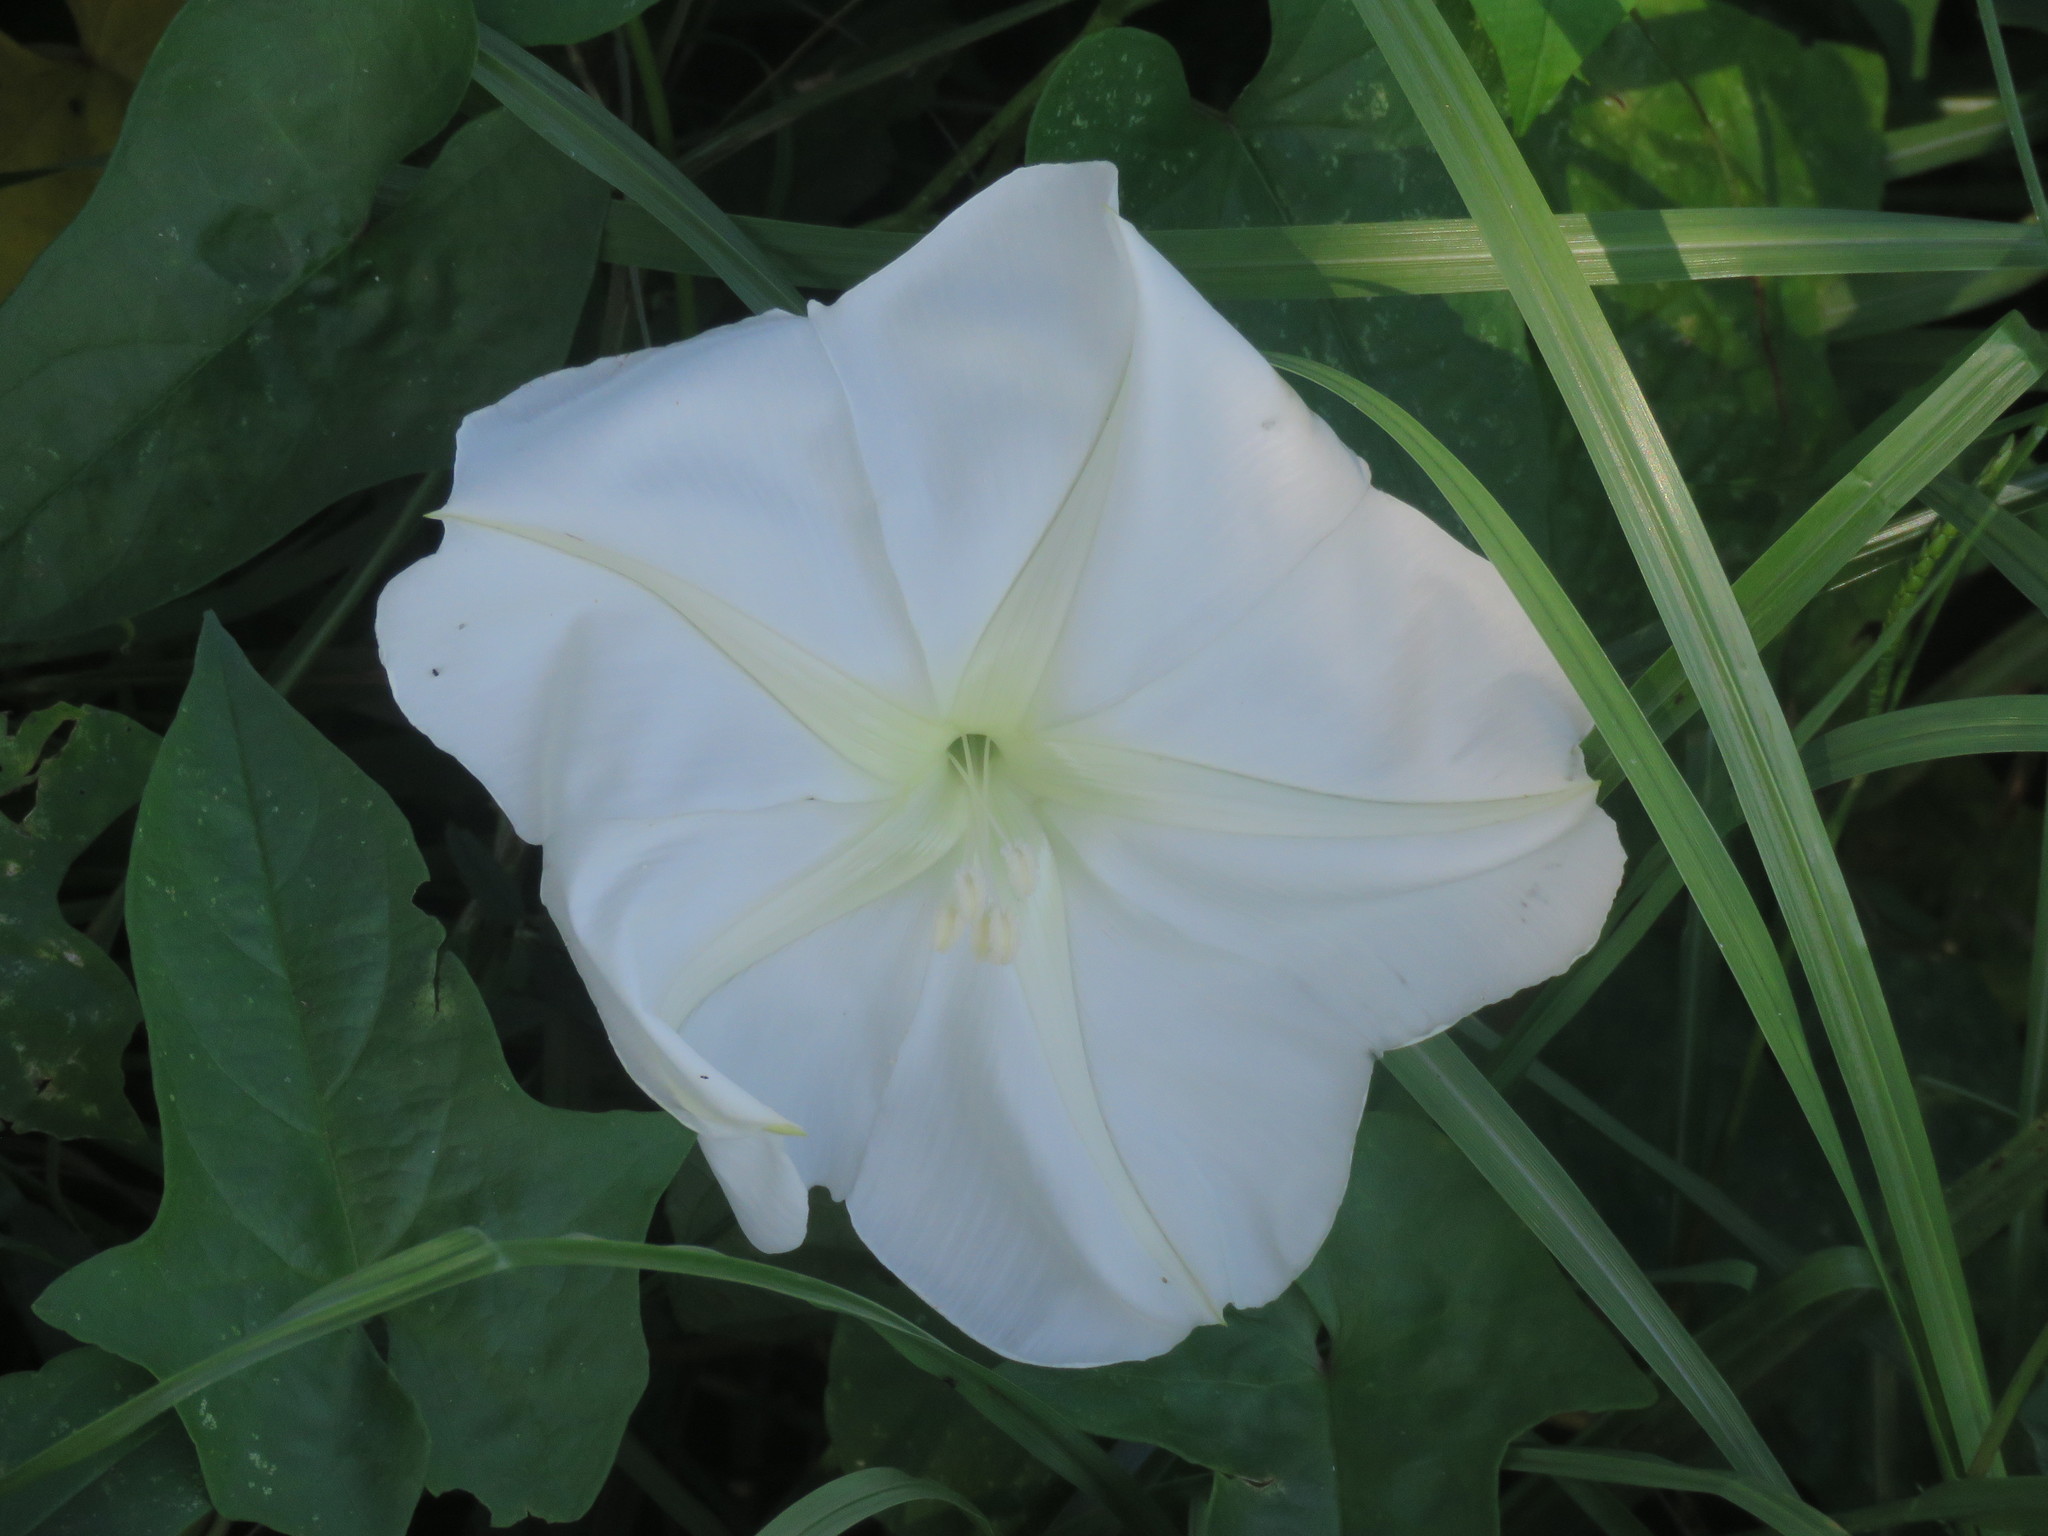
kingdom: Plantae
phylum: Tracheophyta
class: Magnoliopsida
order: Solanales
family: Convolvulaceae
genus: Ipomoea
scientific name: Ipomoea alba
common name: Moonflower
